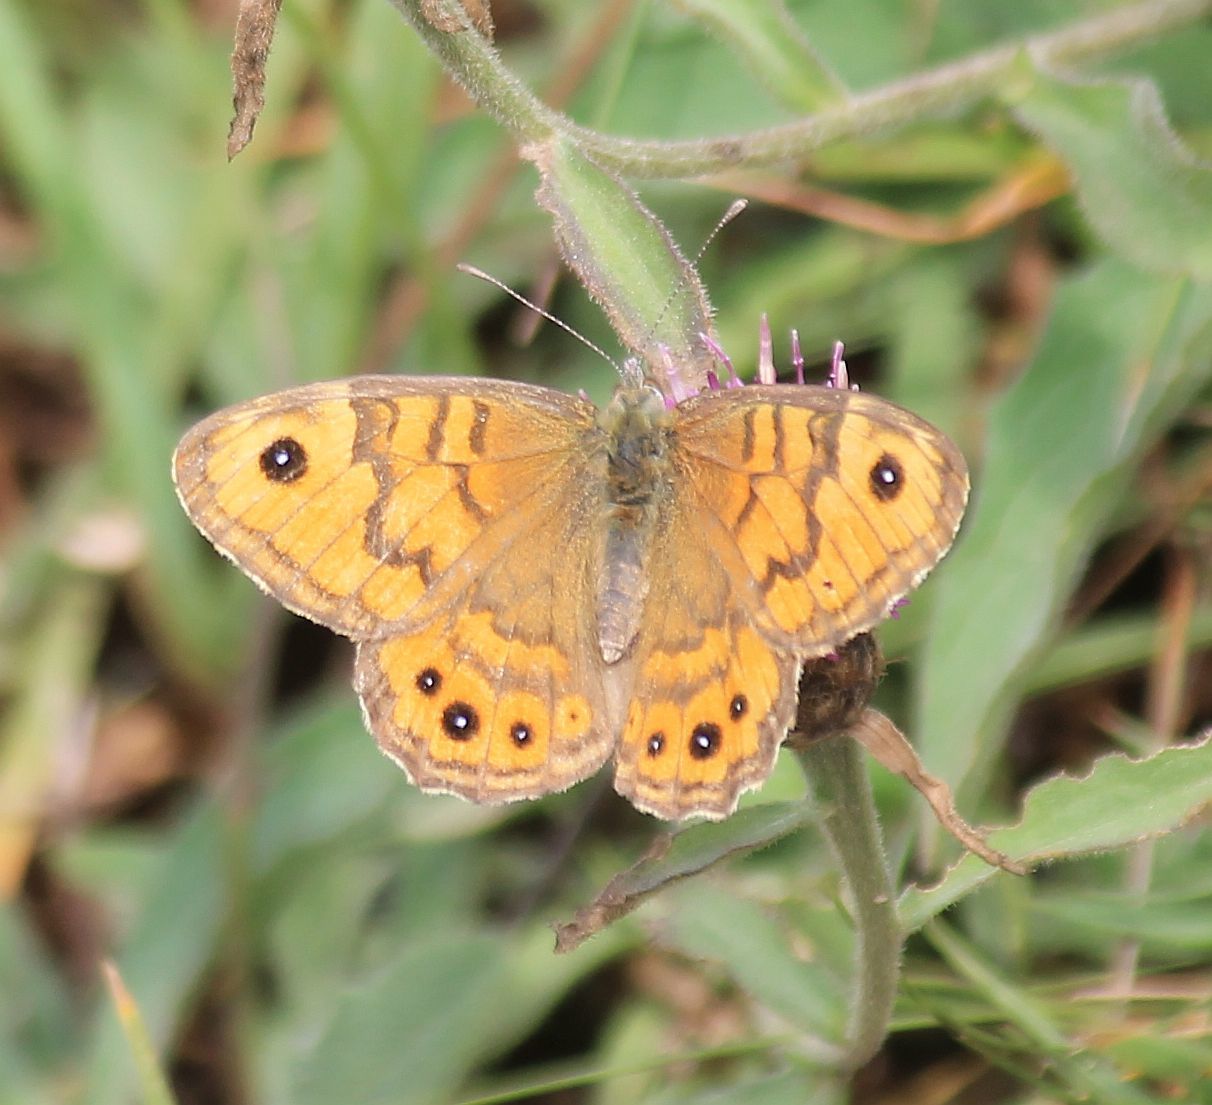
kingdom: Animalia
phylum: Arthropoda
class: Insecta
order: Lepidoptera
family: Nymphalidae
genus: Pararge
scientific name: Pararge Lasiommata megera
